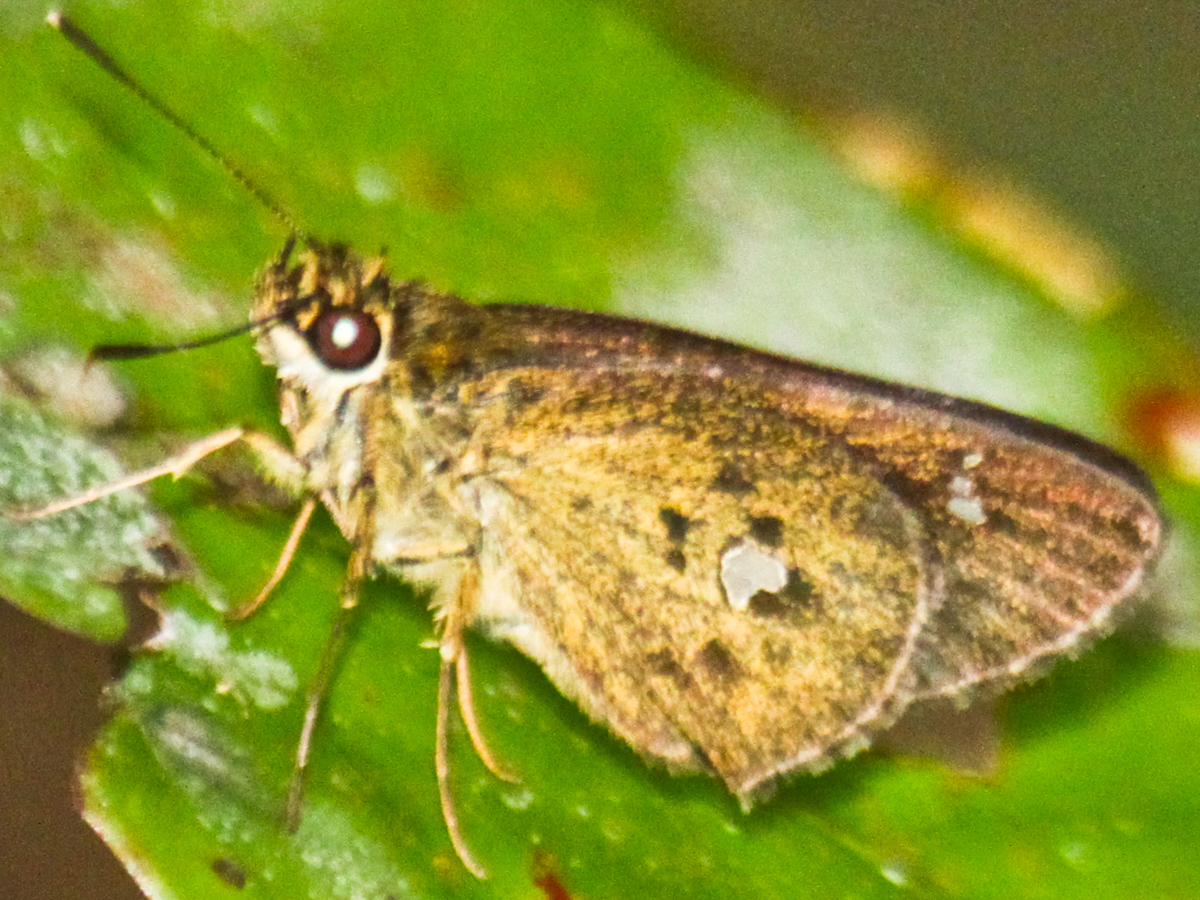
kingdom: Animalia
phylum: Arthropoda
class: Insecta
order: Lepidoptera
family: Hesperiidae
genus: Scobura
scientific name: Scobura phiditia
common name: Malay forest bob
